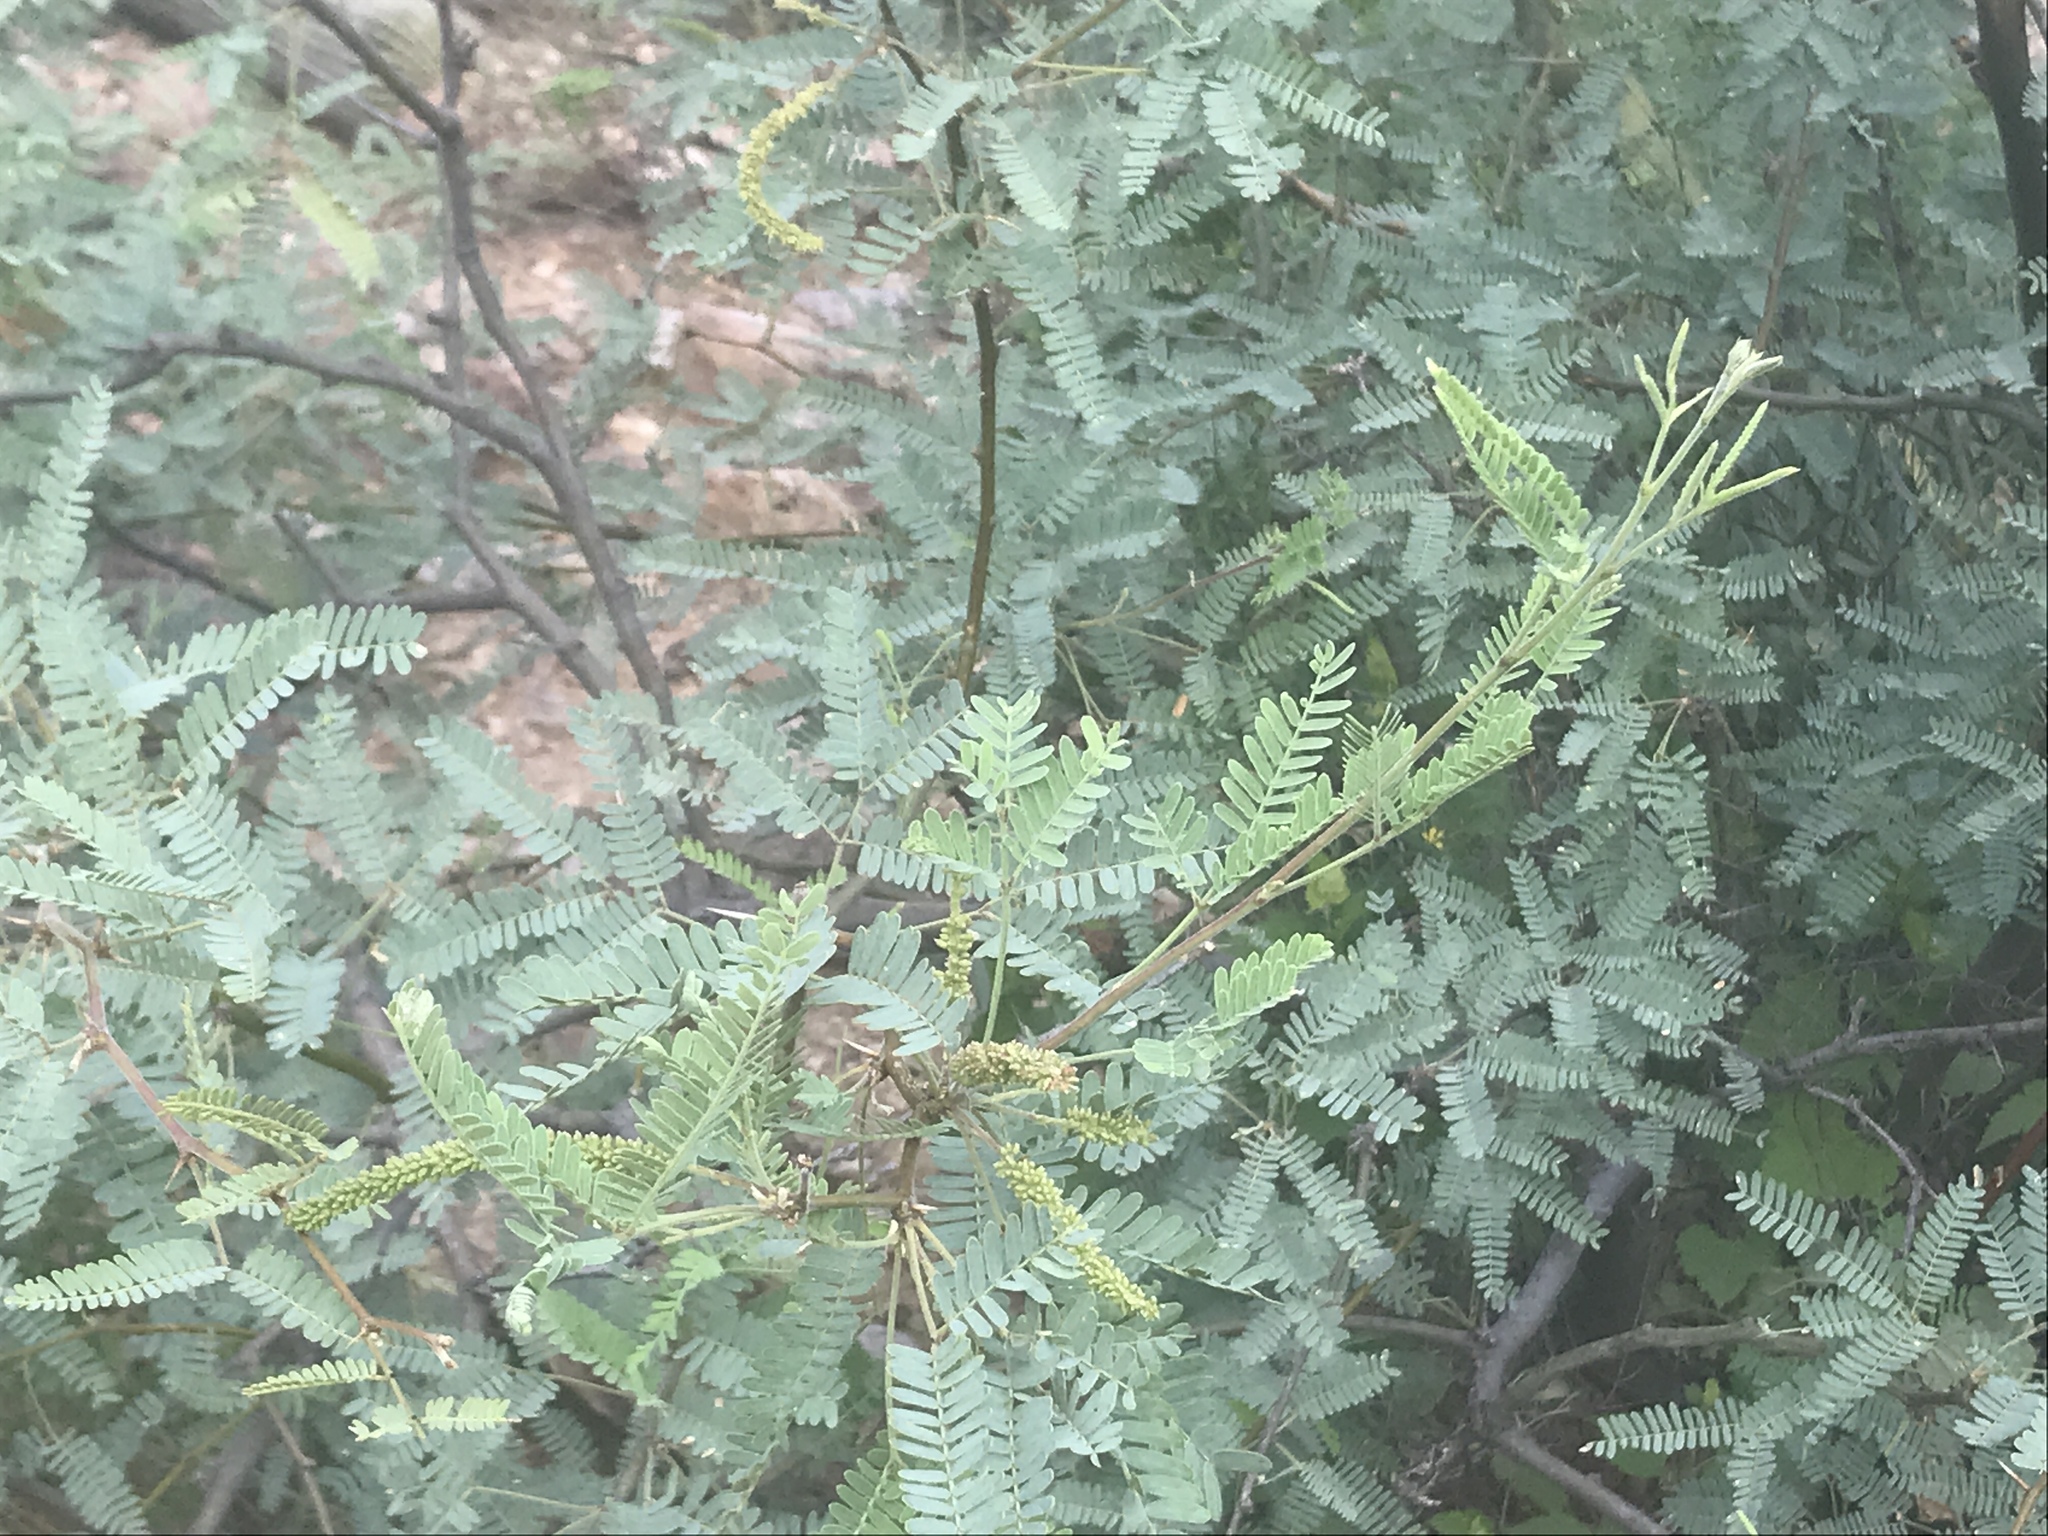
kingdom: Plantae
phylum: Tracheophyta
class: Magnoliopsida
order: Fabales
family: Fabaceae
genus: Prosopis
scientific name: Prosopis velutina
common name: Velvet mesquite
